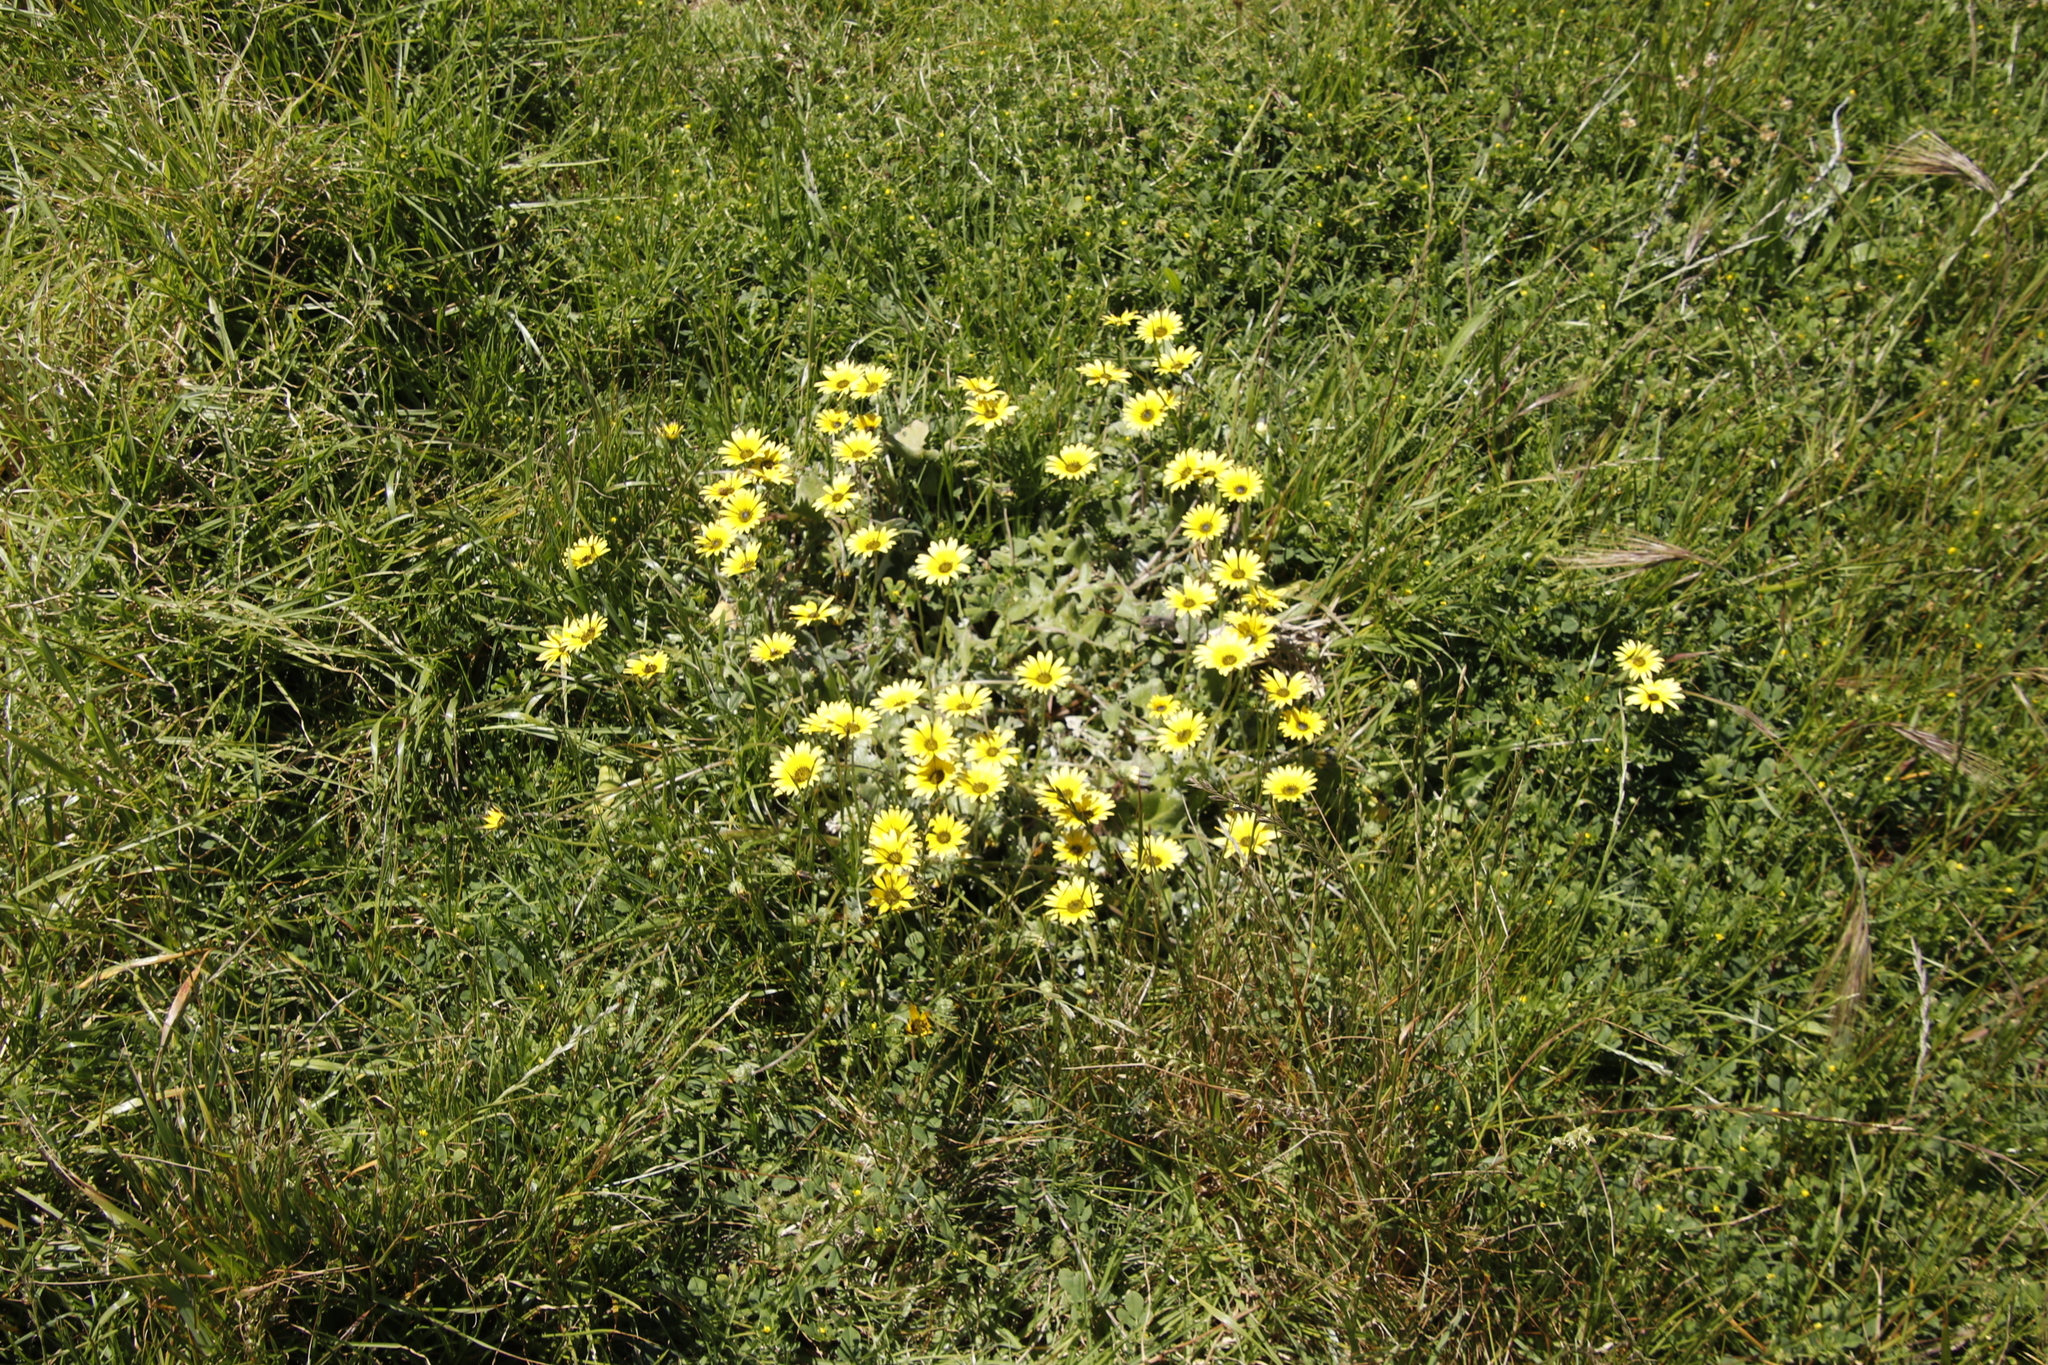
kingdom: Plantae
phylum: Tracheophyta
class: Magnoliopsida
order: Asterales
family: Asteraceae
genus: Arctotheca
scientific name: Arctotheca calendula
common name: Capeweed
